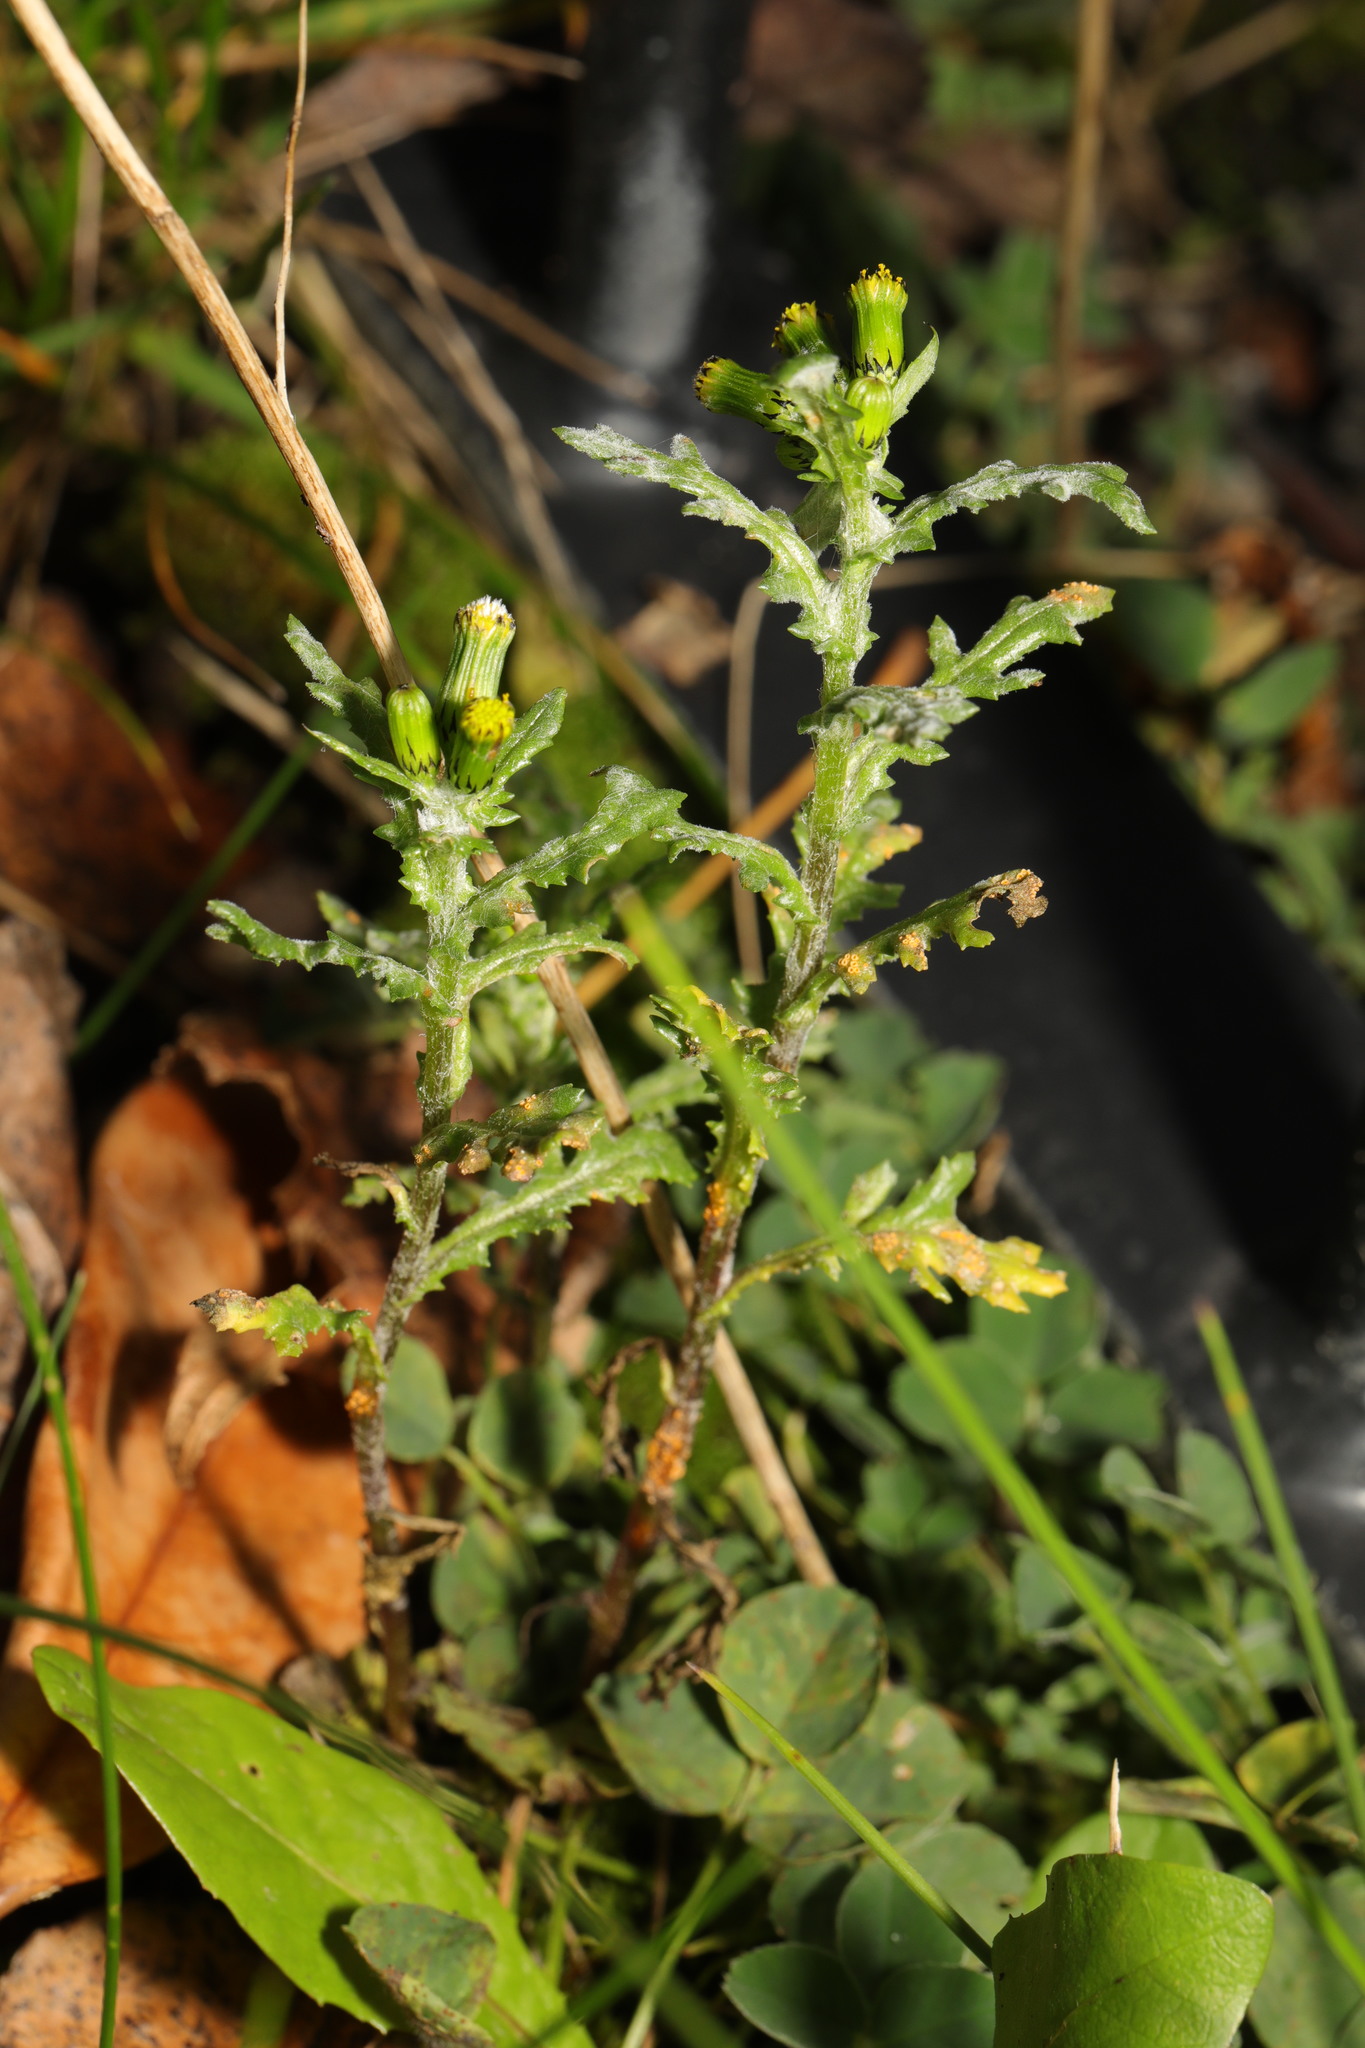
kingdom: Plantae
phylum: Tracheophyta
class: Magnoliopsida
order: Asterales
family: Asteraceae
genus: Senecio
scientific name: Senecio vulgaris
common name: Old-man-in-the-spring
